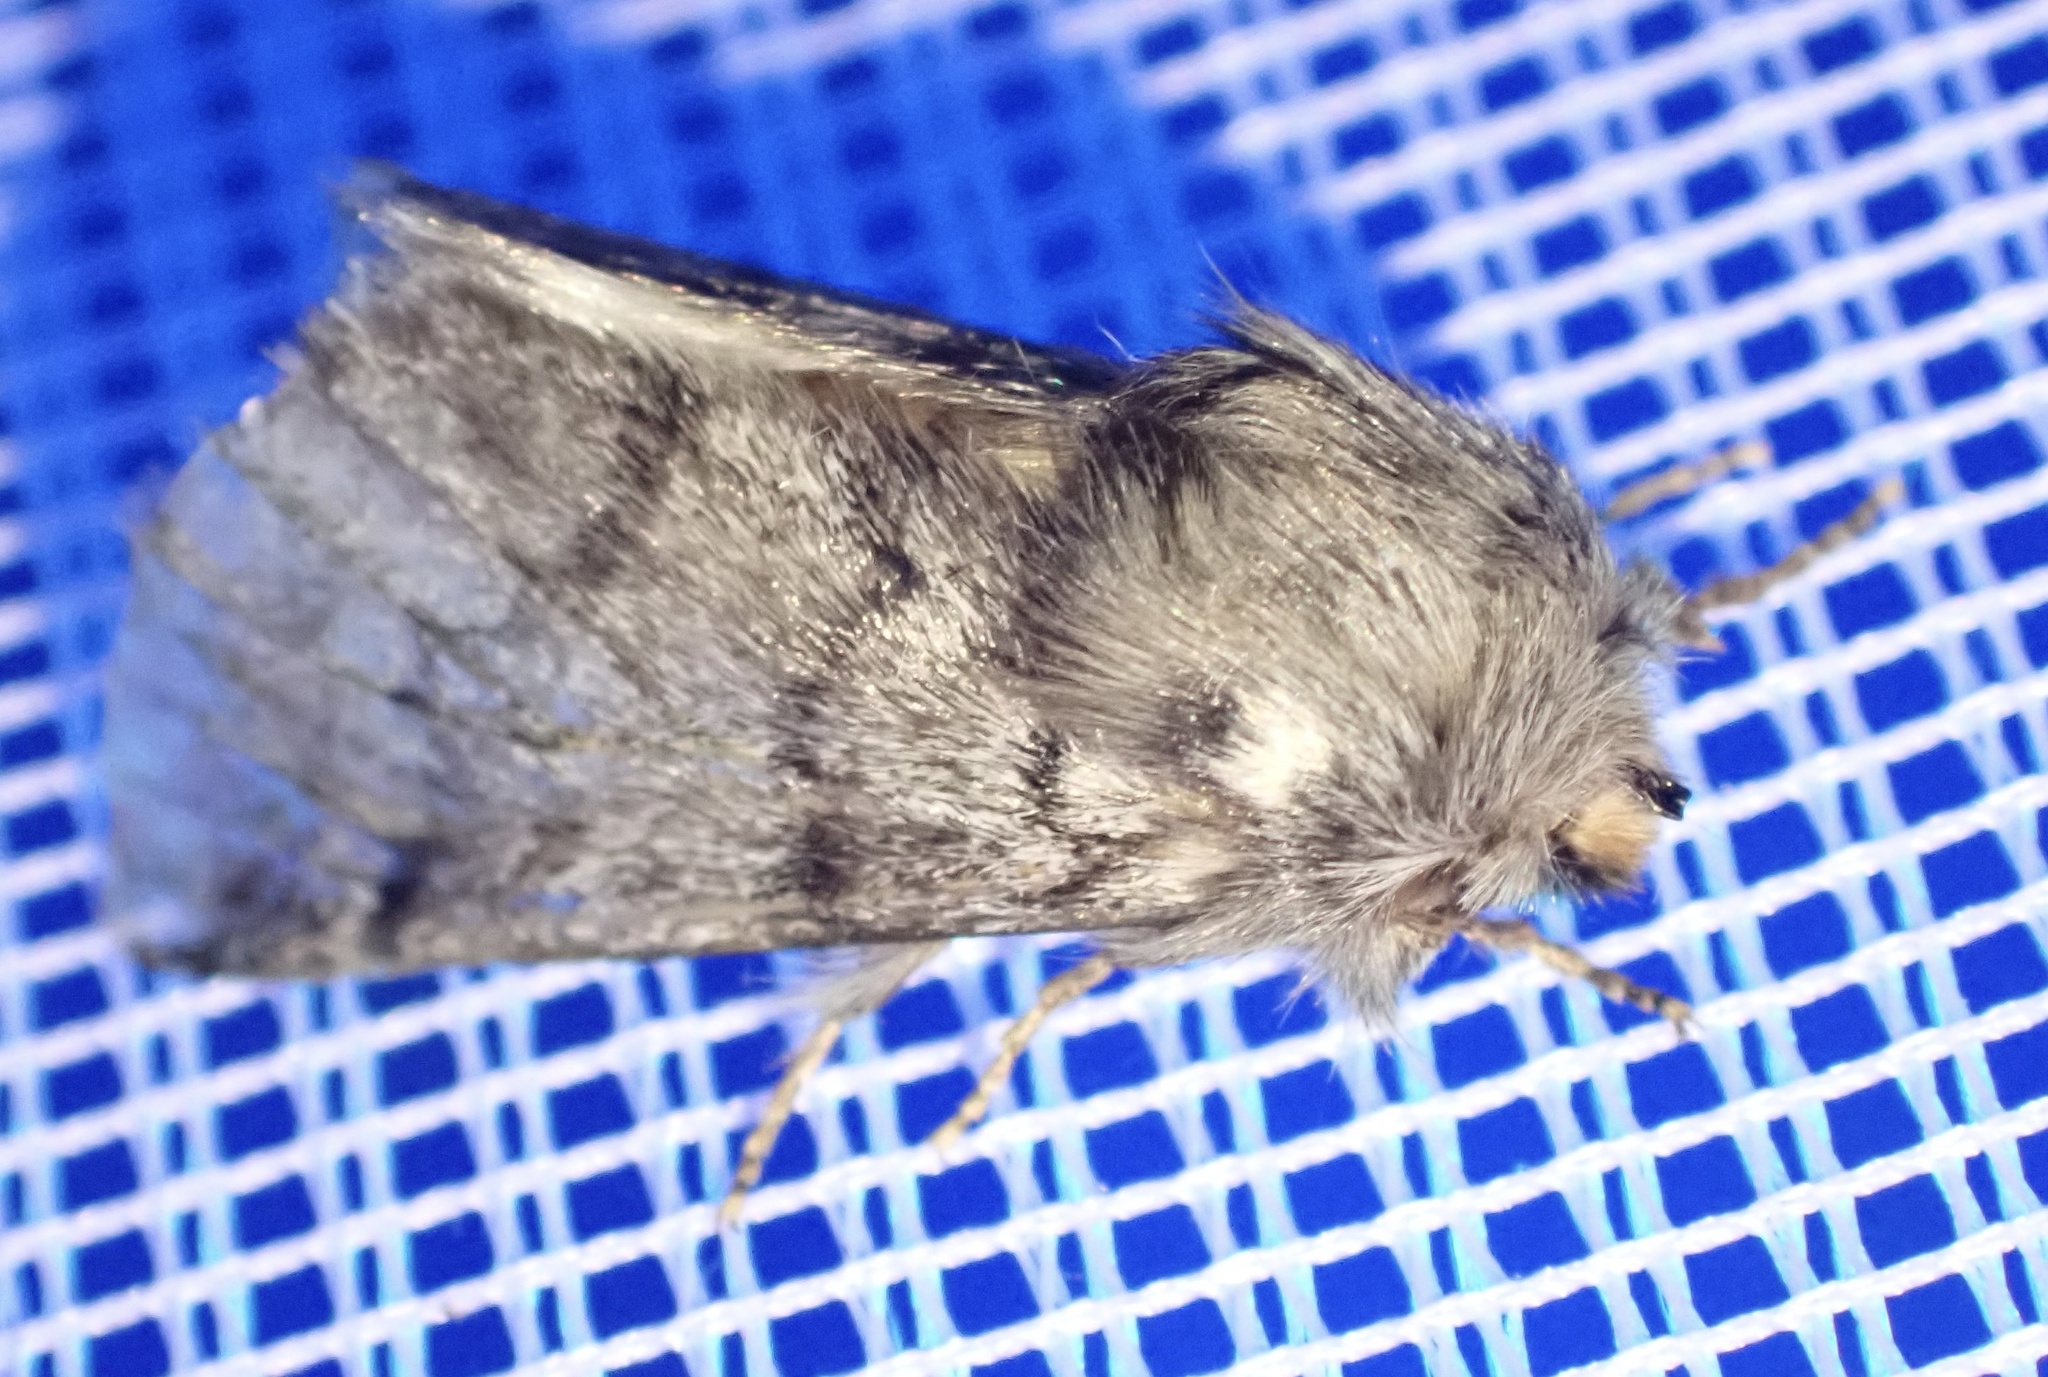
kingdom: Animalia
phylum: Arthropoda
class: Insecta
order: Lepidoptera
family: Notodontidae
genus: Thaumetopoea
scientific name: Thaumetopoea pityocampa
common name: Pine processionary
